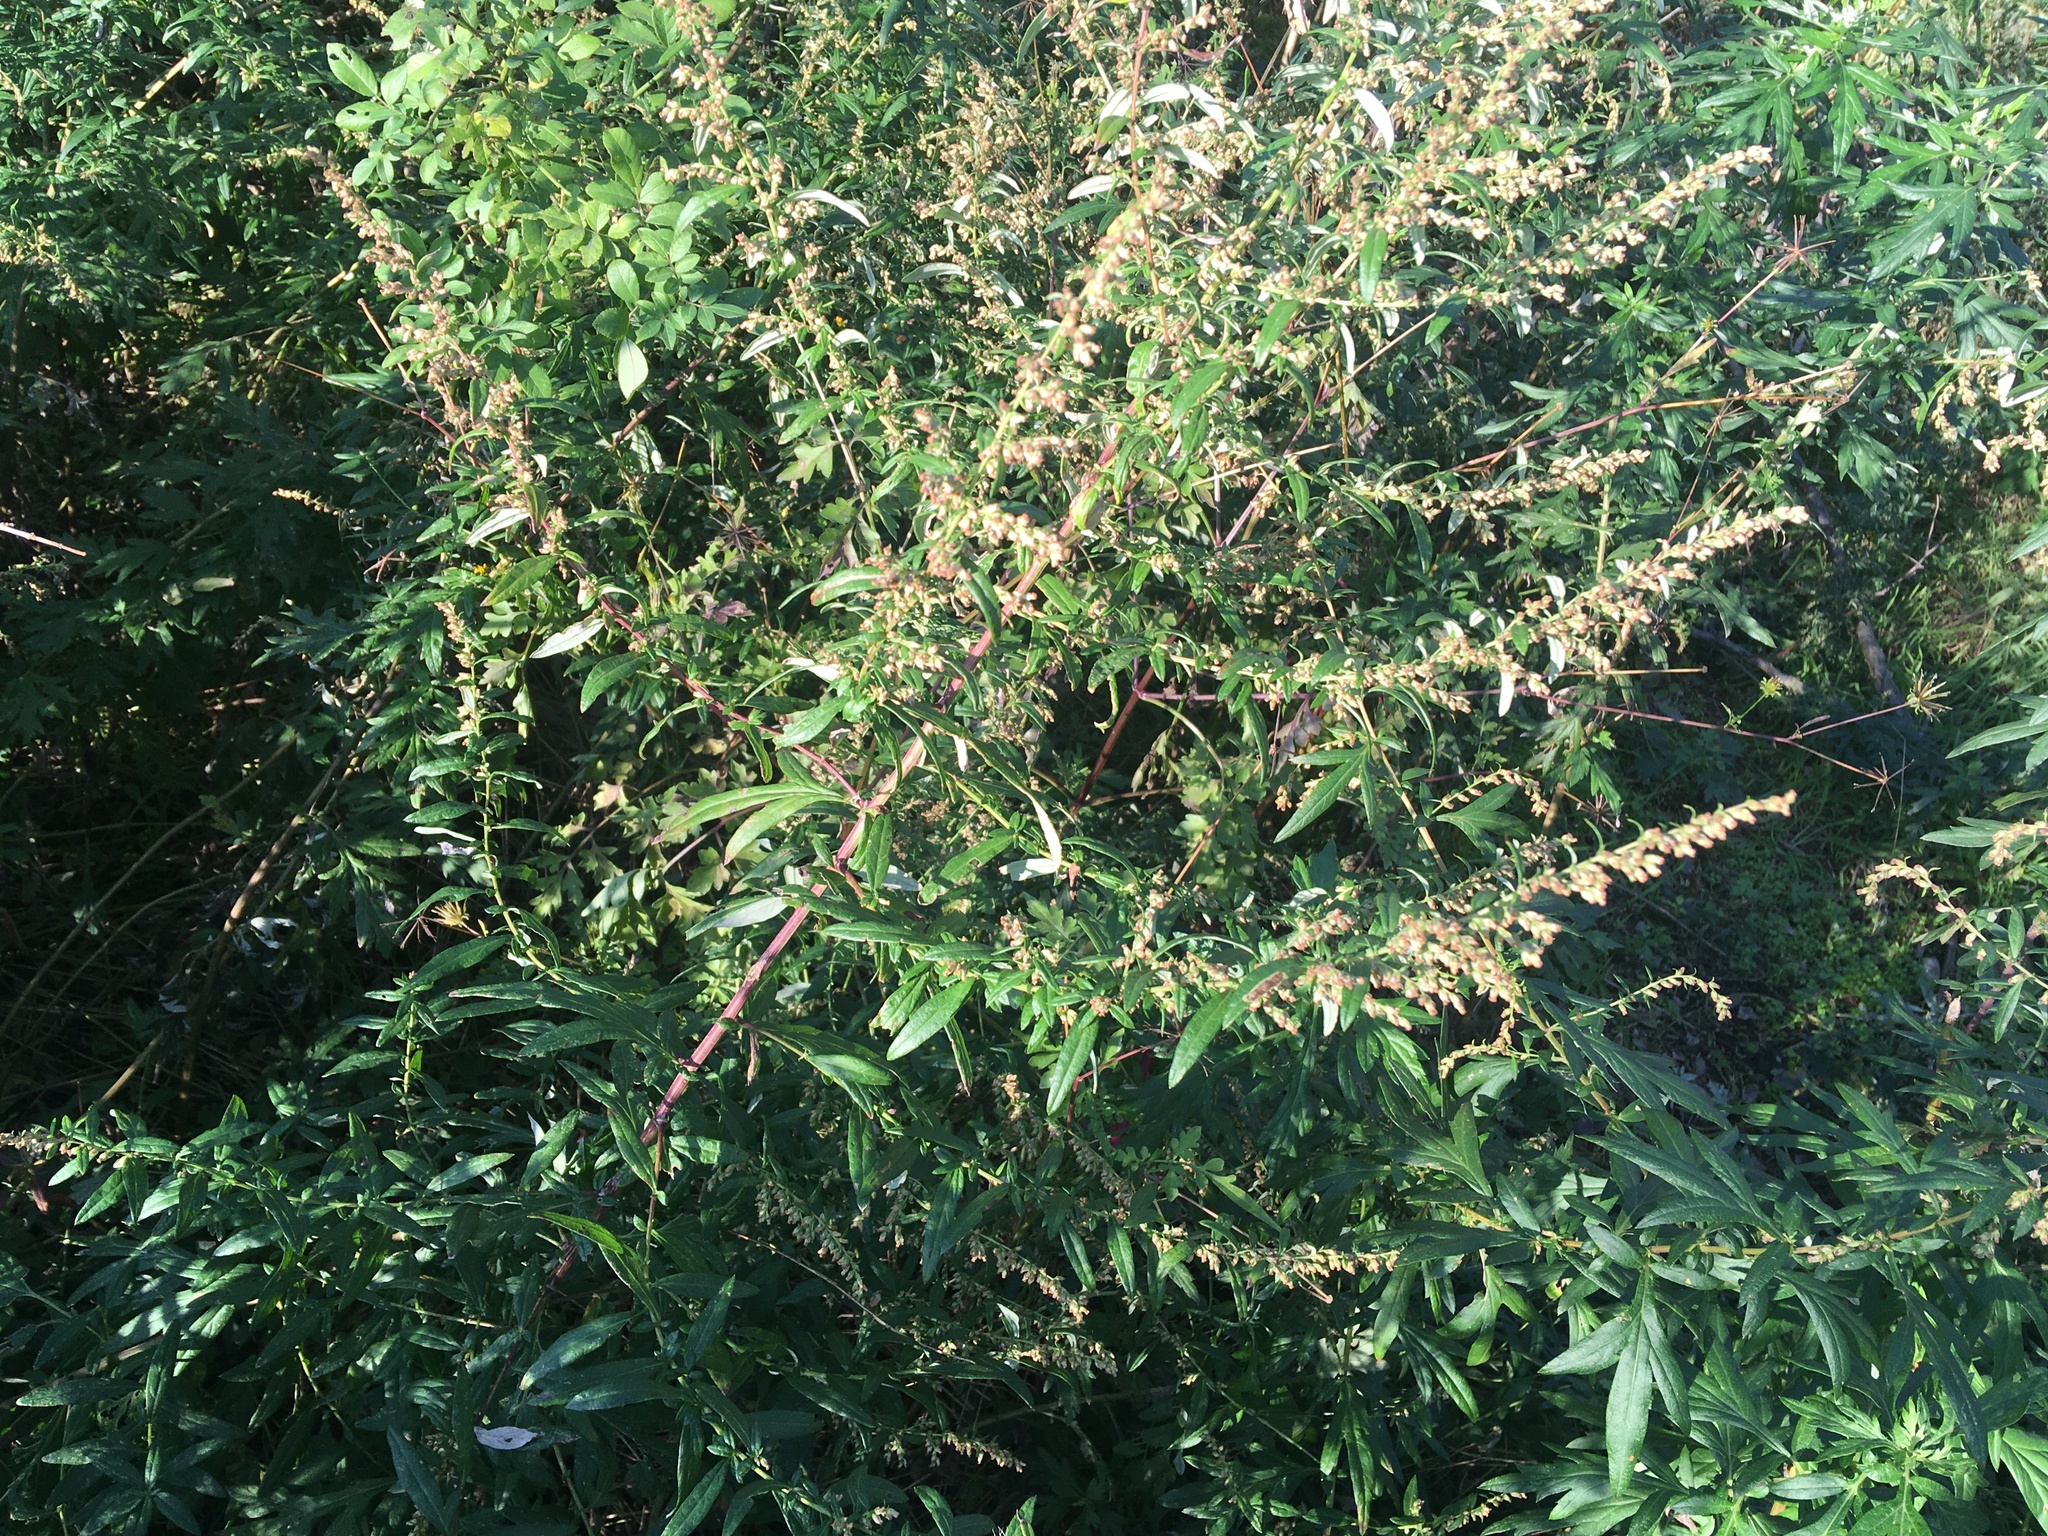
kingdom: Plantae
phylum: Tracheophyta
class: Magnoliopsida
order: Asterales
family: Asteraceae
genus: Artemisia
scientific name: Artemisia vulgaris
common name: Mugwort
